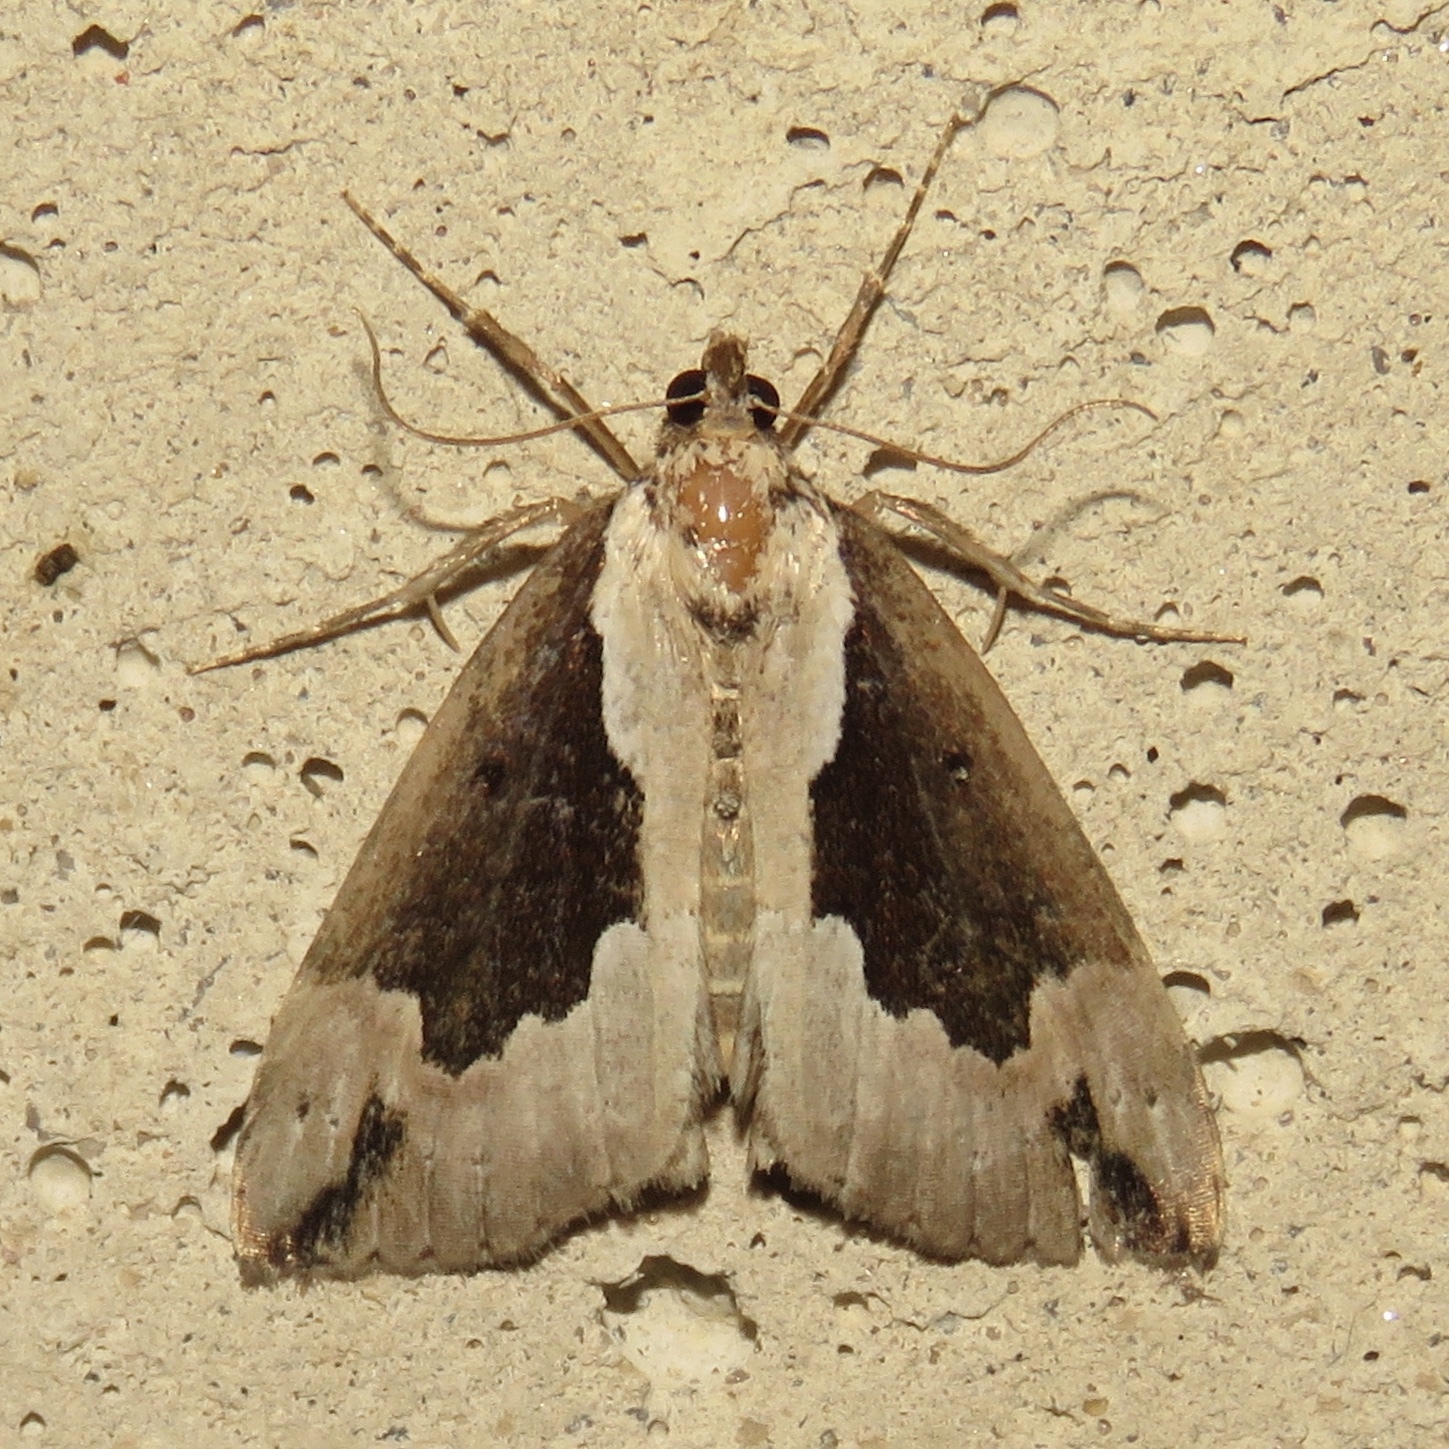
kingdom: Animalia
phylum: Arthropoda
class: Insecta
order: Lepidoptera
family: Erebidae
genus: Hypena
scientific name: Hypena baltimoralis
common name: Baltimore snout
